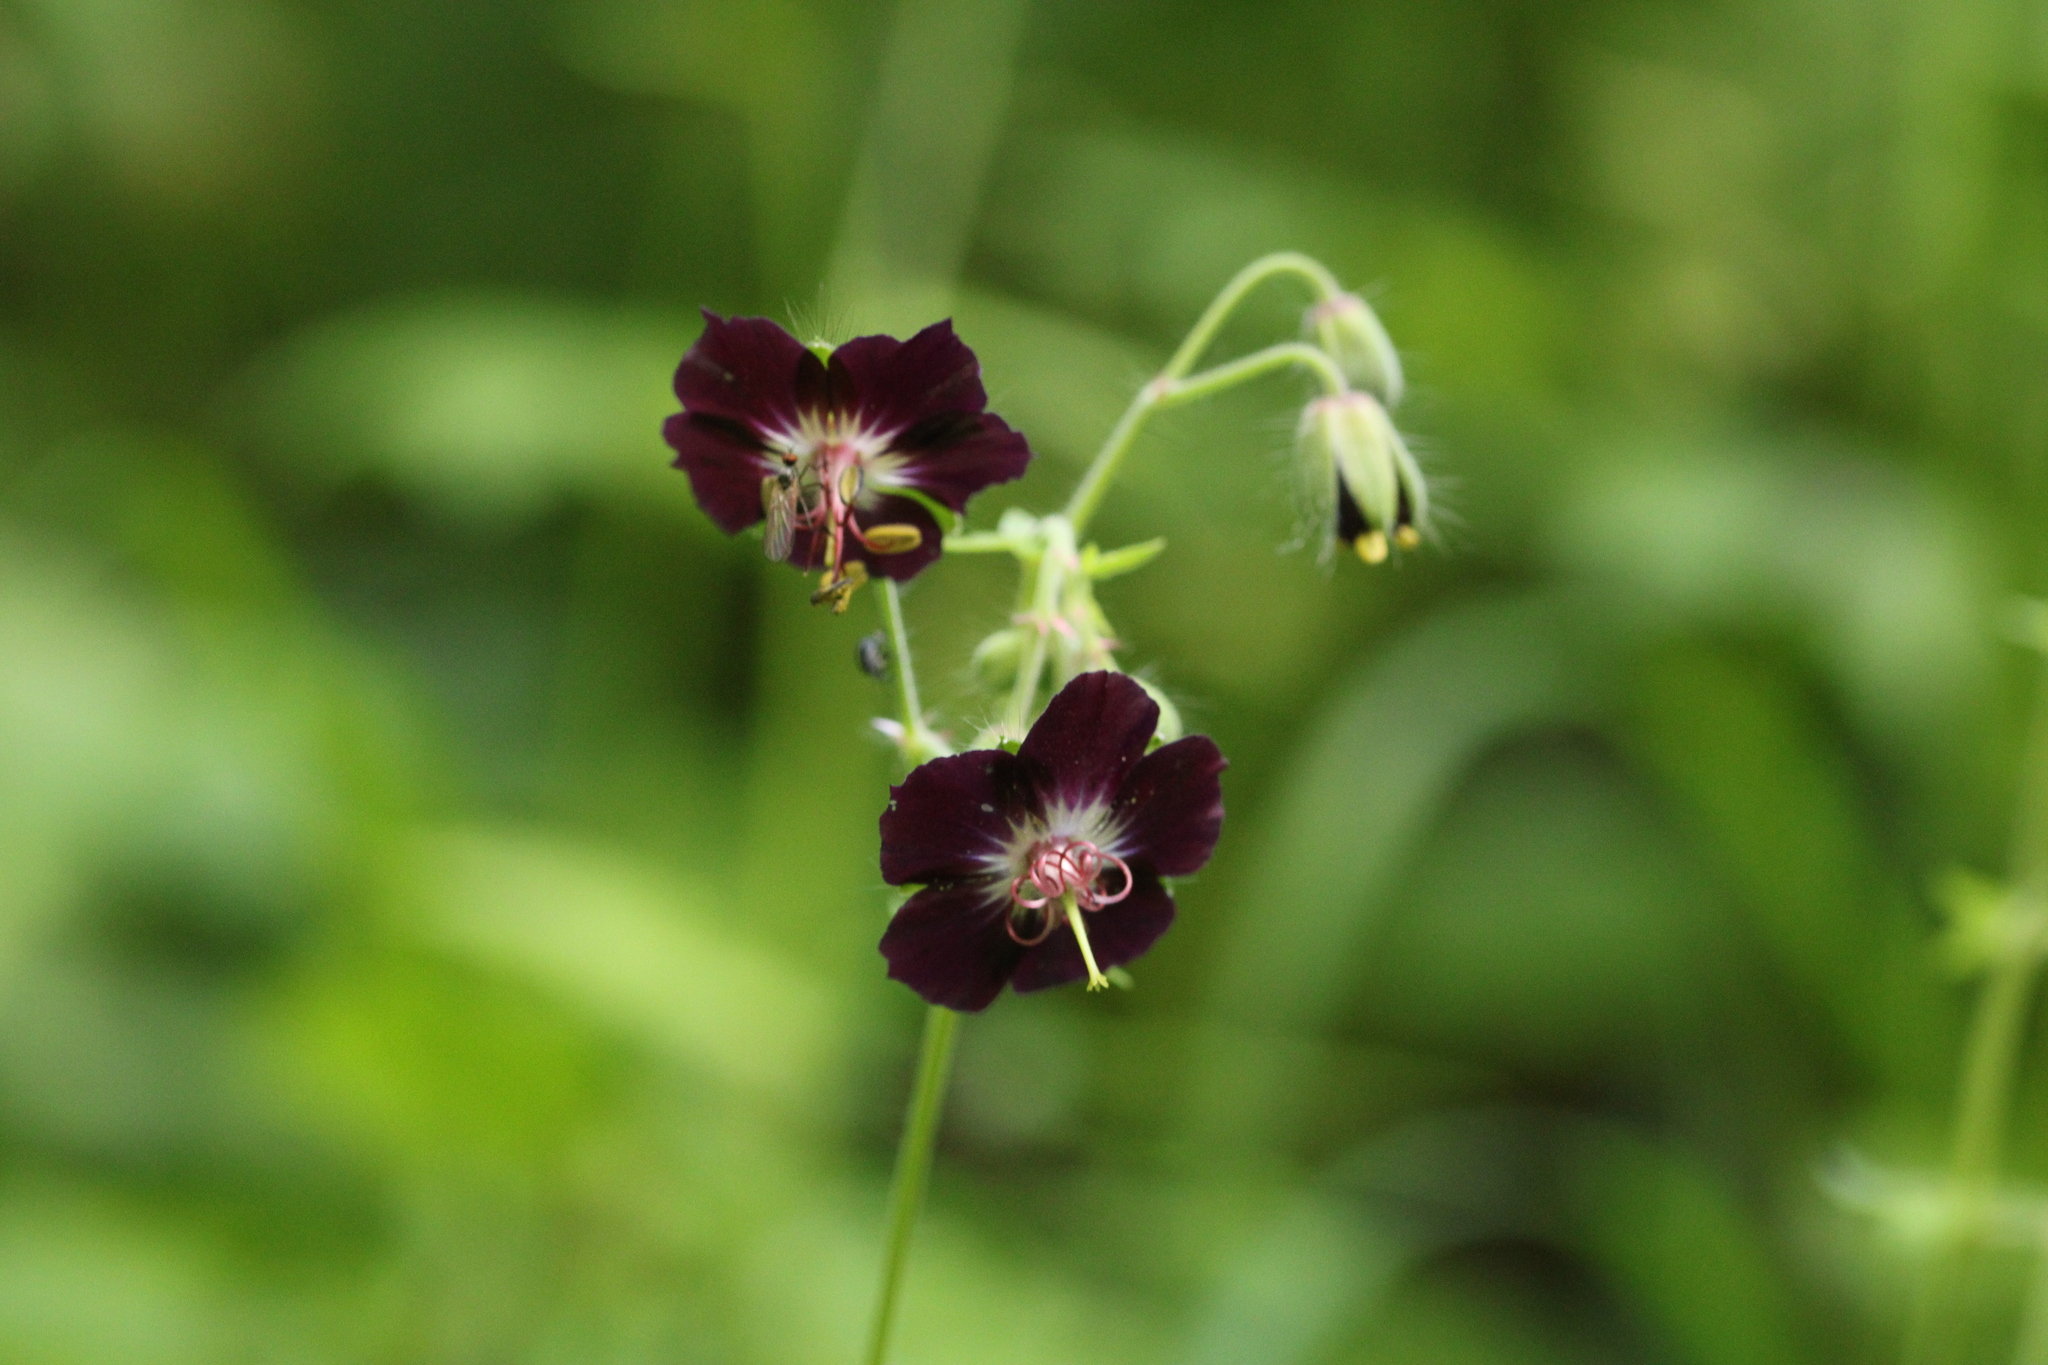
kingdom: Plantae
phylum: Tracheophyta
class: Magnoliopsida
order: Geraniales
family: Geraniaceae
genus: Geranium
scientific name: Geranium phaeum
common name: Dusky crane's-bill
